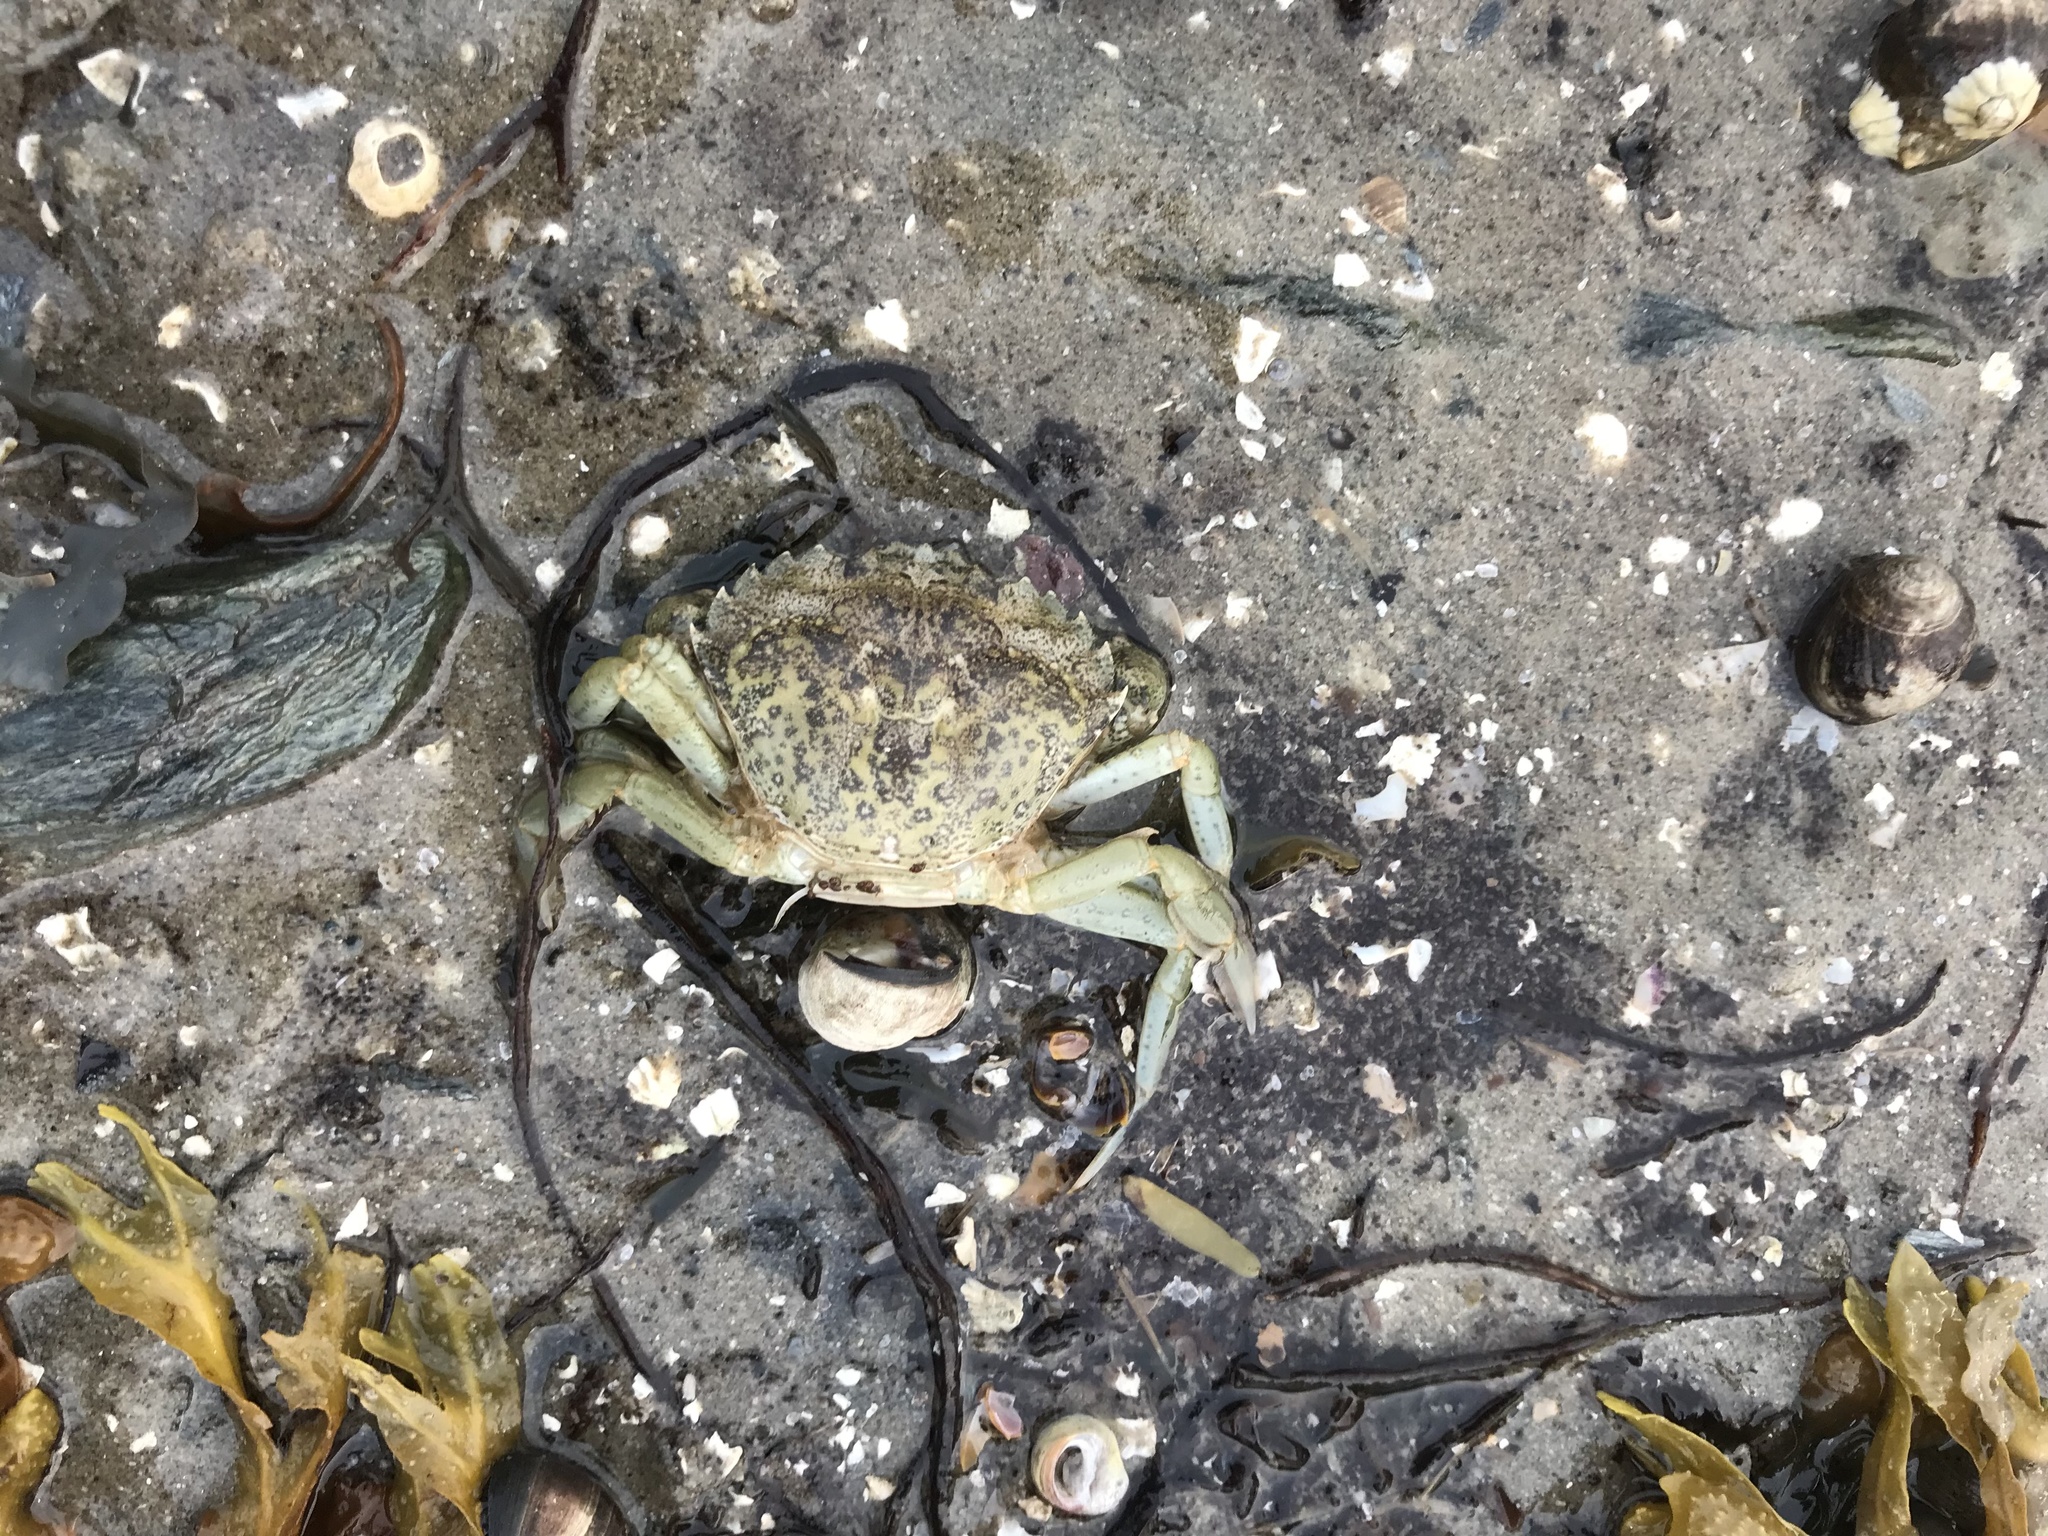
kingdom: Animalia
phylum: Arthropoda
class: Malacostraca
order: Decapoda
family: Carcinidae
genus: Carcinus
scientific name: Carcinus maenas
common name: European green crab
